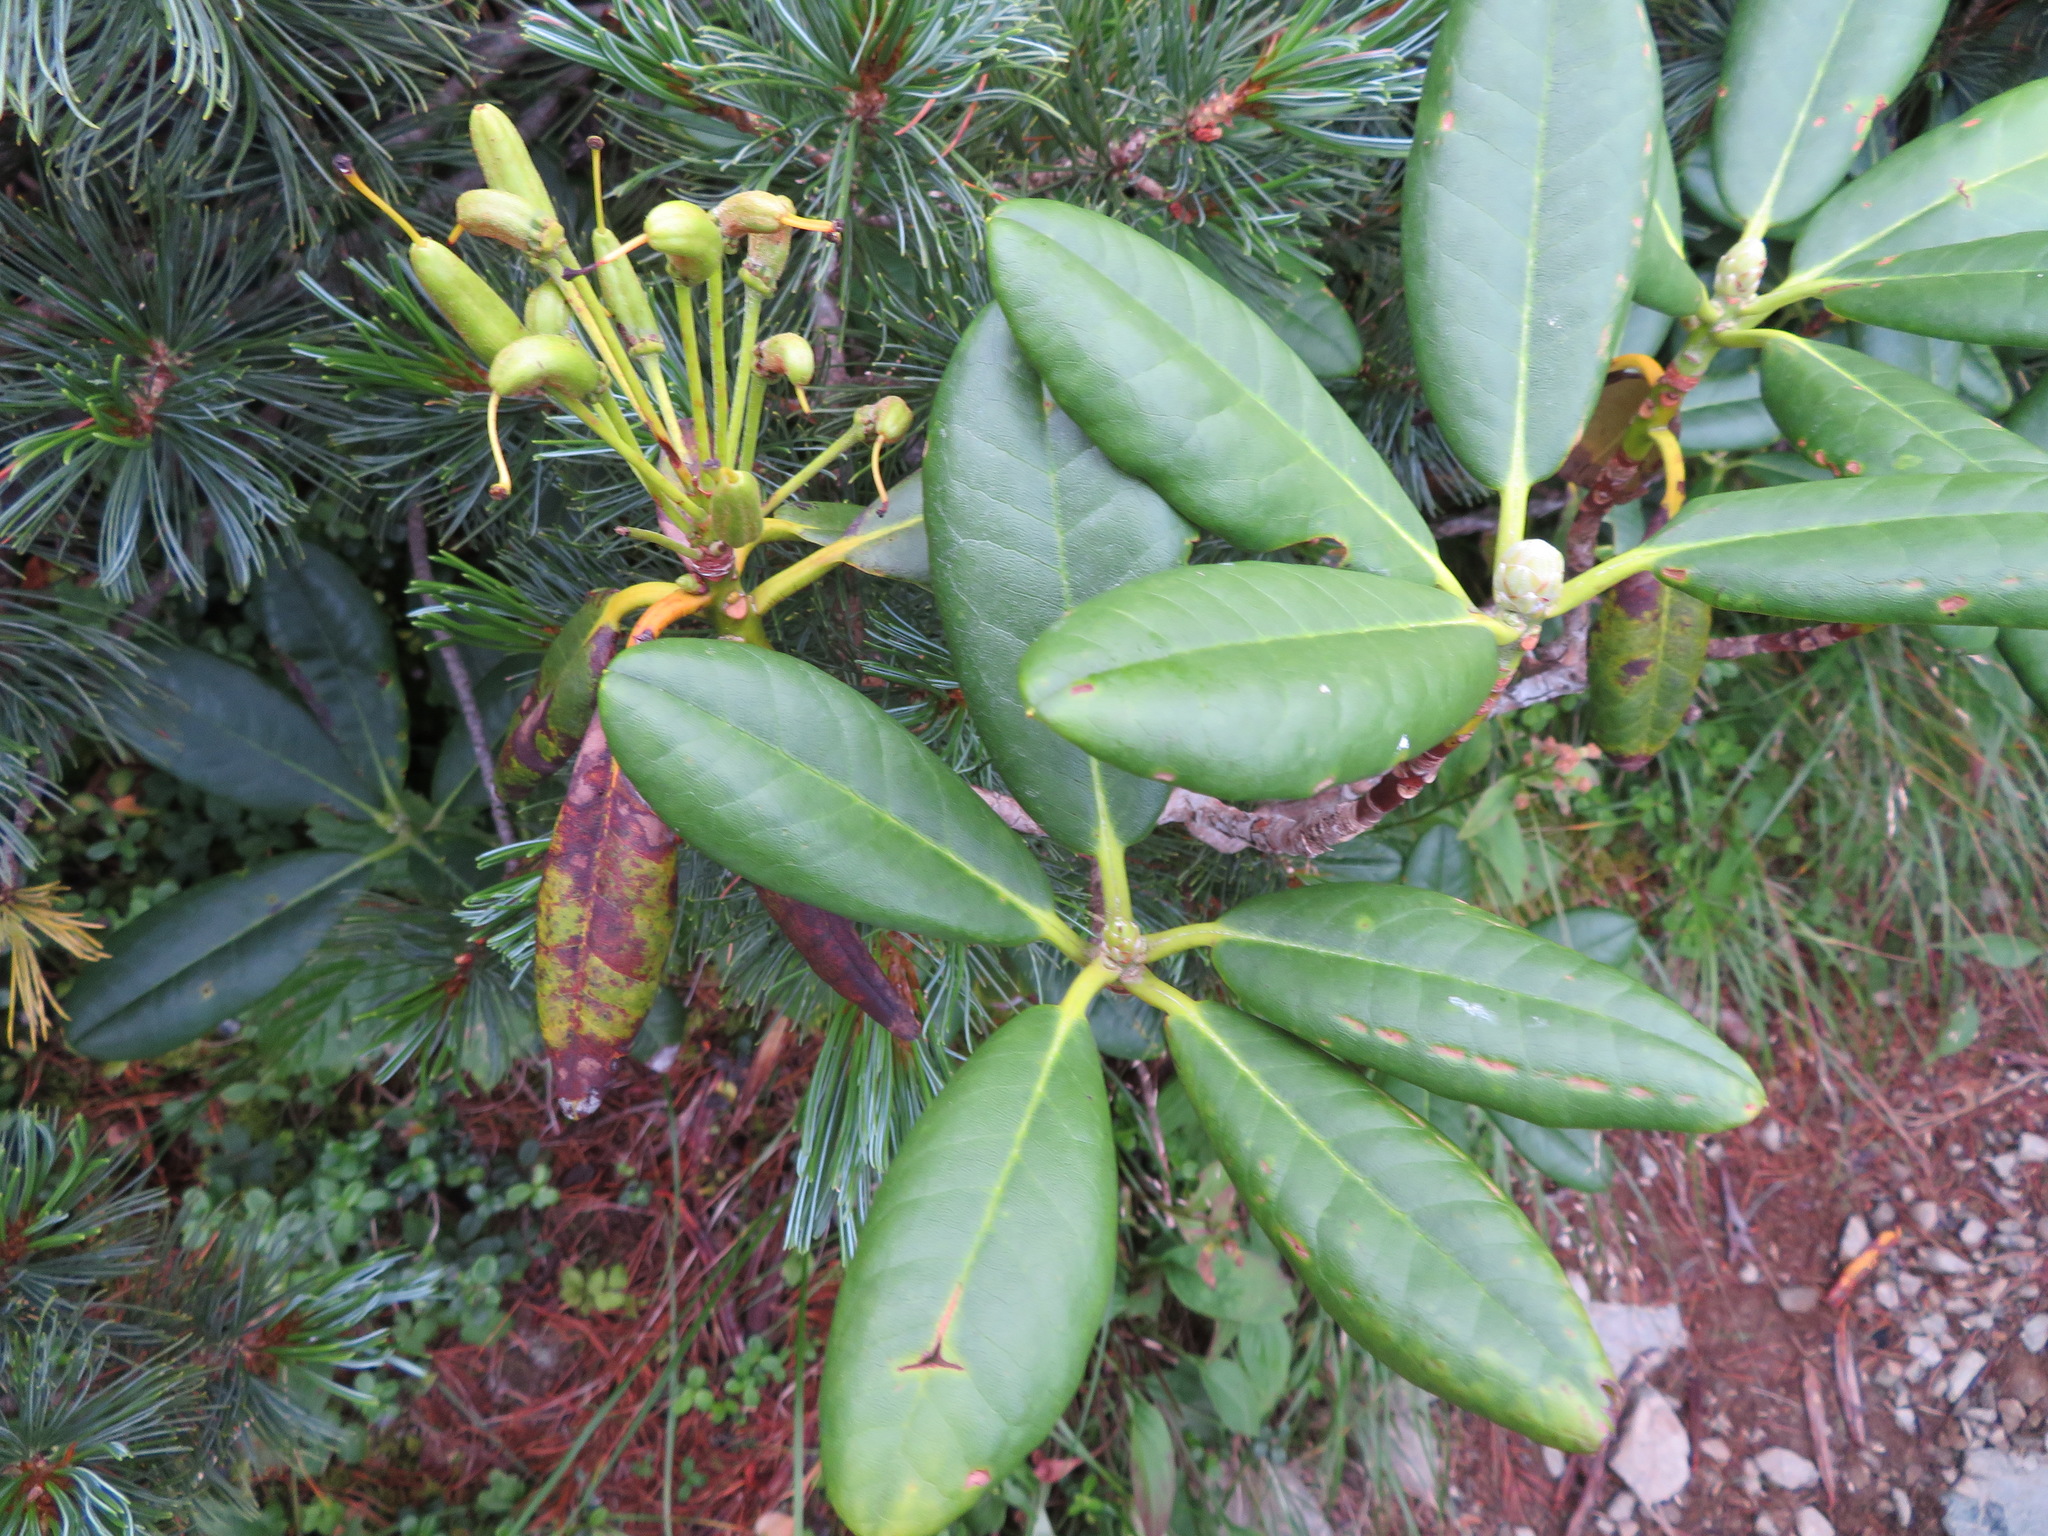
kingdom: Plantae
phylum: Tracheophyta
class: Magnoliopsida
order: Ericales
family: Ericaceae
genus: Rhododendron
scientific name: Rhododendron brachycarpum
